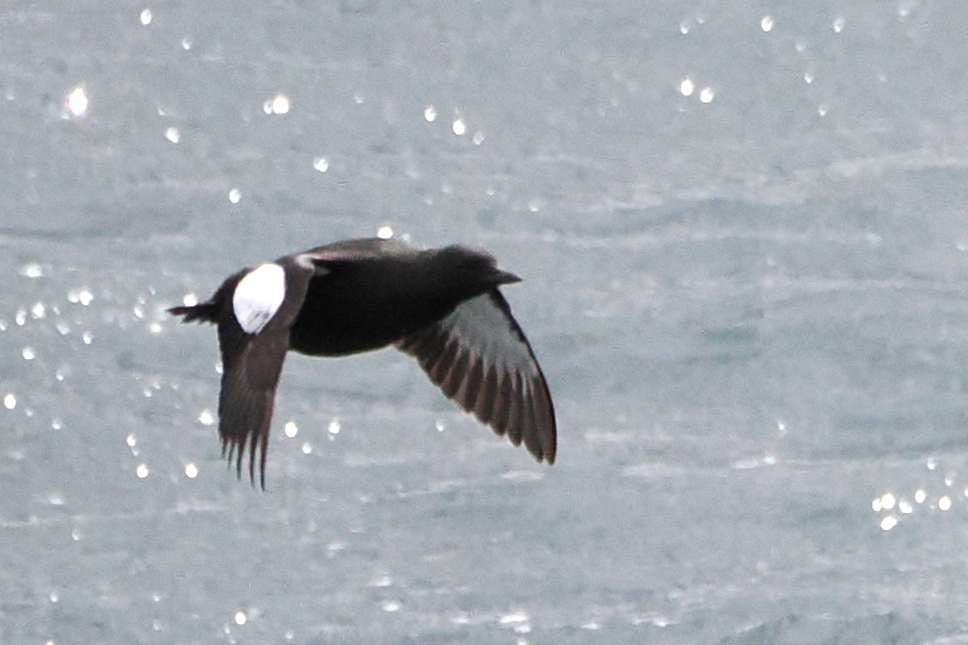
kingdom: Animalia
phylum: Chordata
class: Aves
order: Charadriiformes
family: Alcidae
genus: Cepphus
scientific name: Cepphus grylle
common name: Black guillemot
